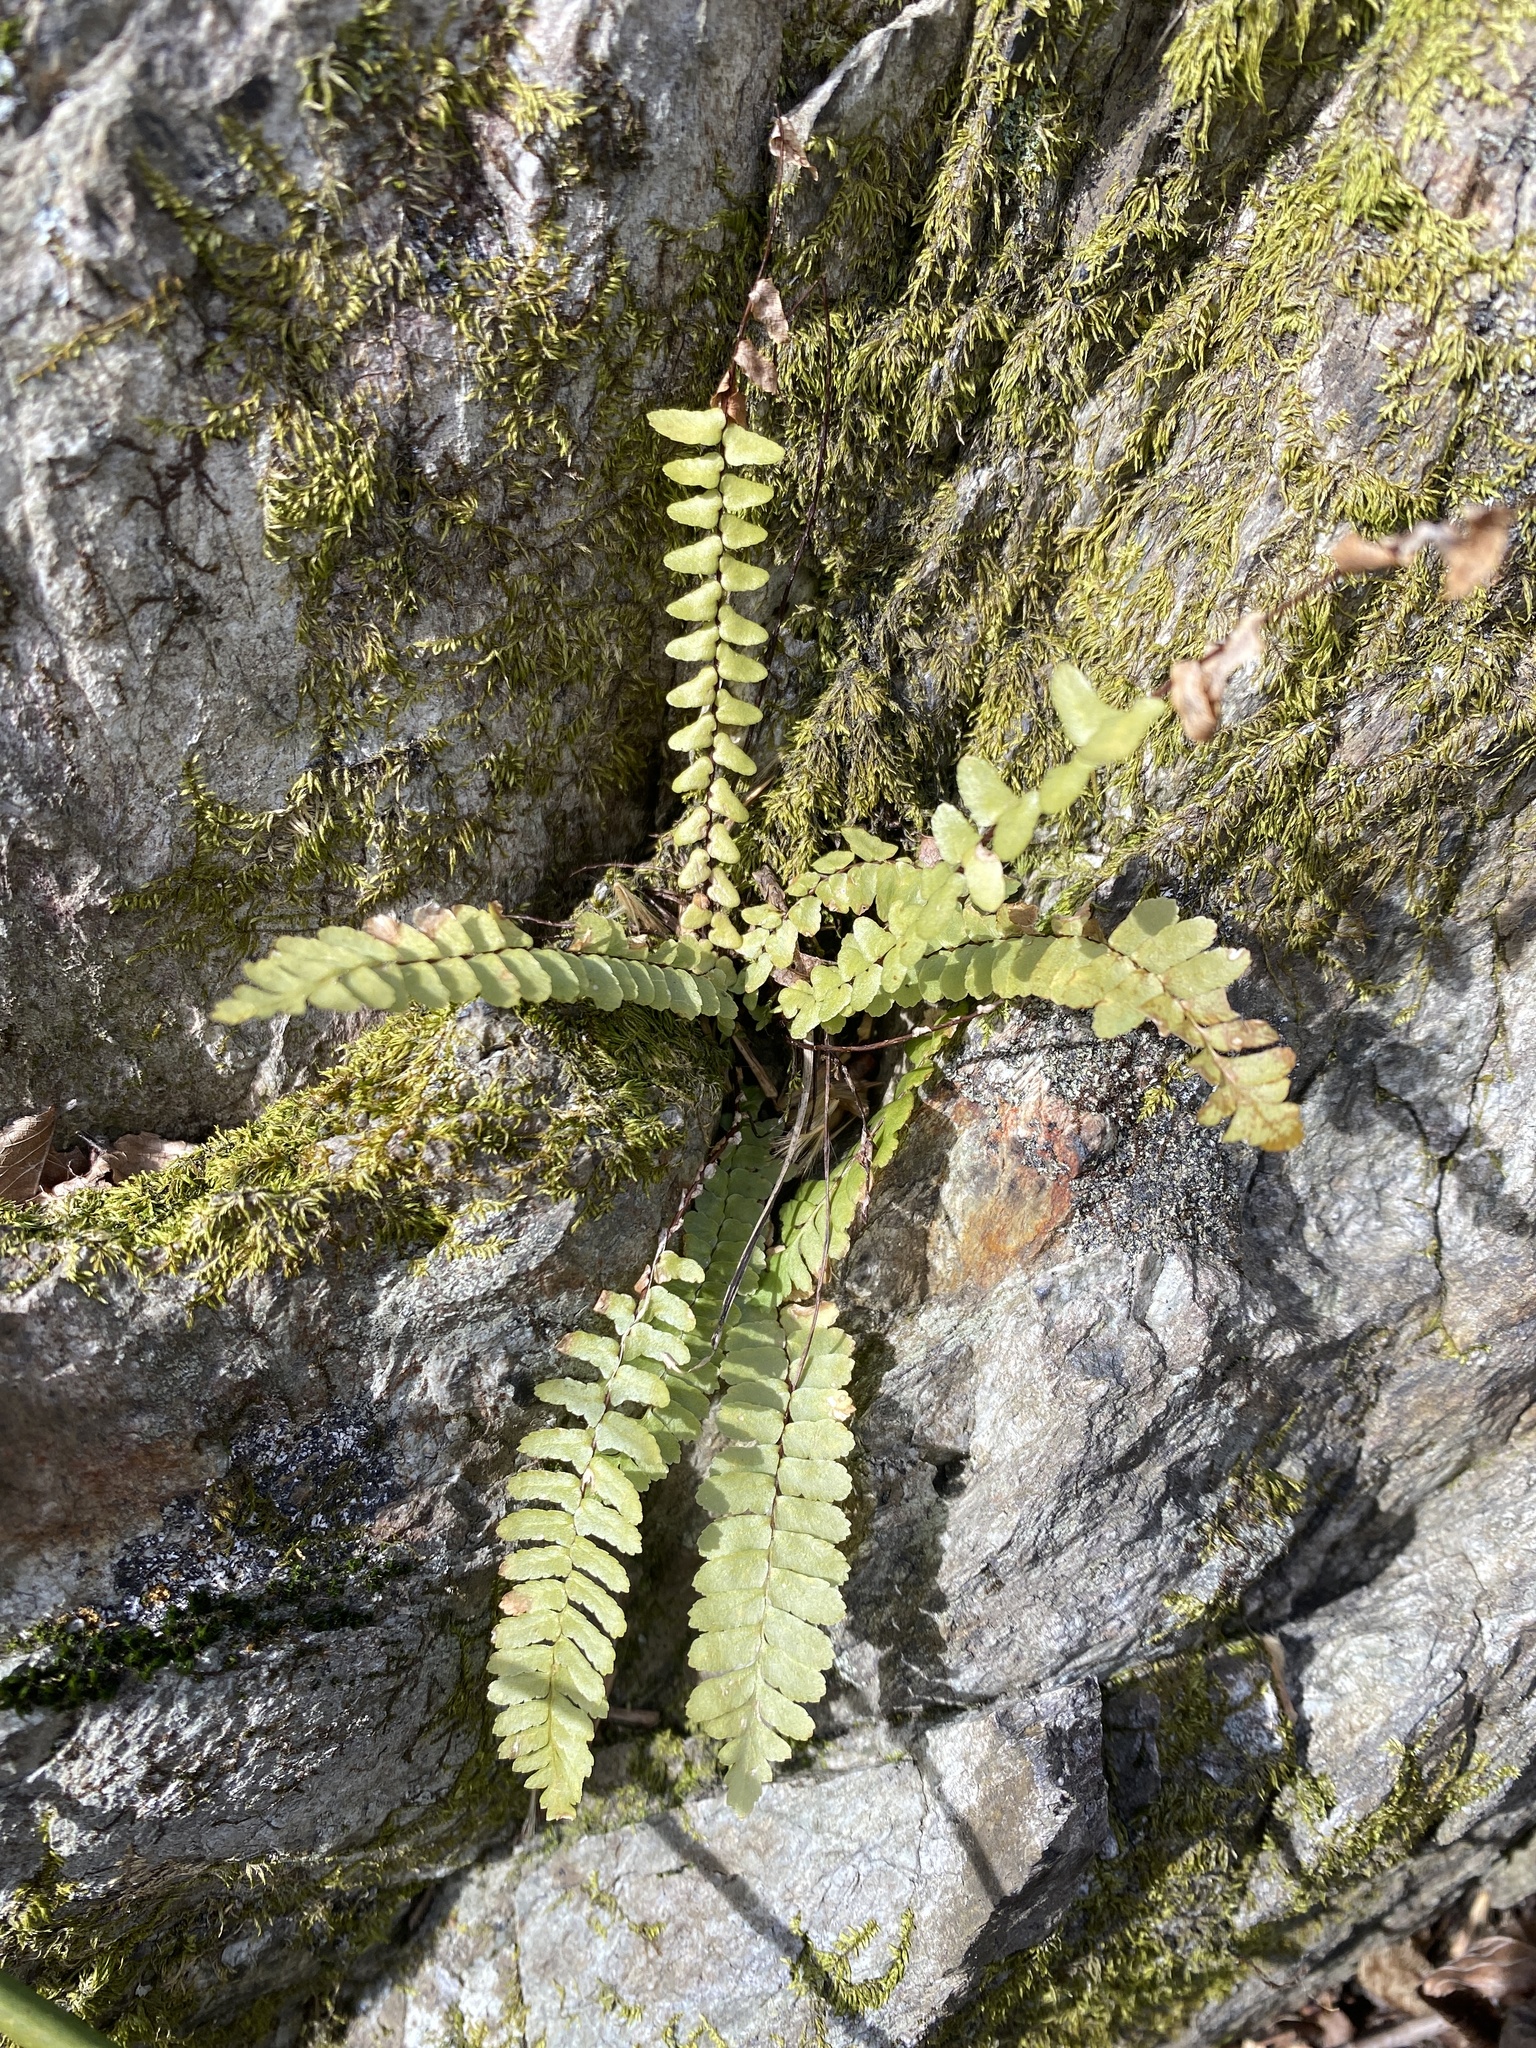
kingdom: Plantae
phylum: Tracheophyta
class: Polypodiopsida
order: Polypodiales
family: Aspleniaceae
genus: Asplenium
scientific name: Asplenium platyneuron
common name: Ebony spleenwort
